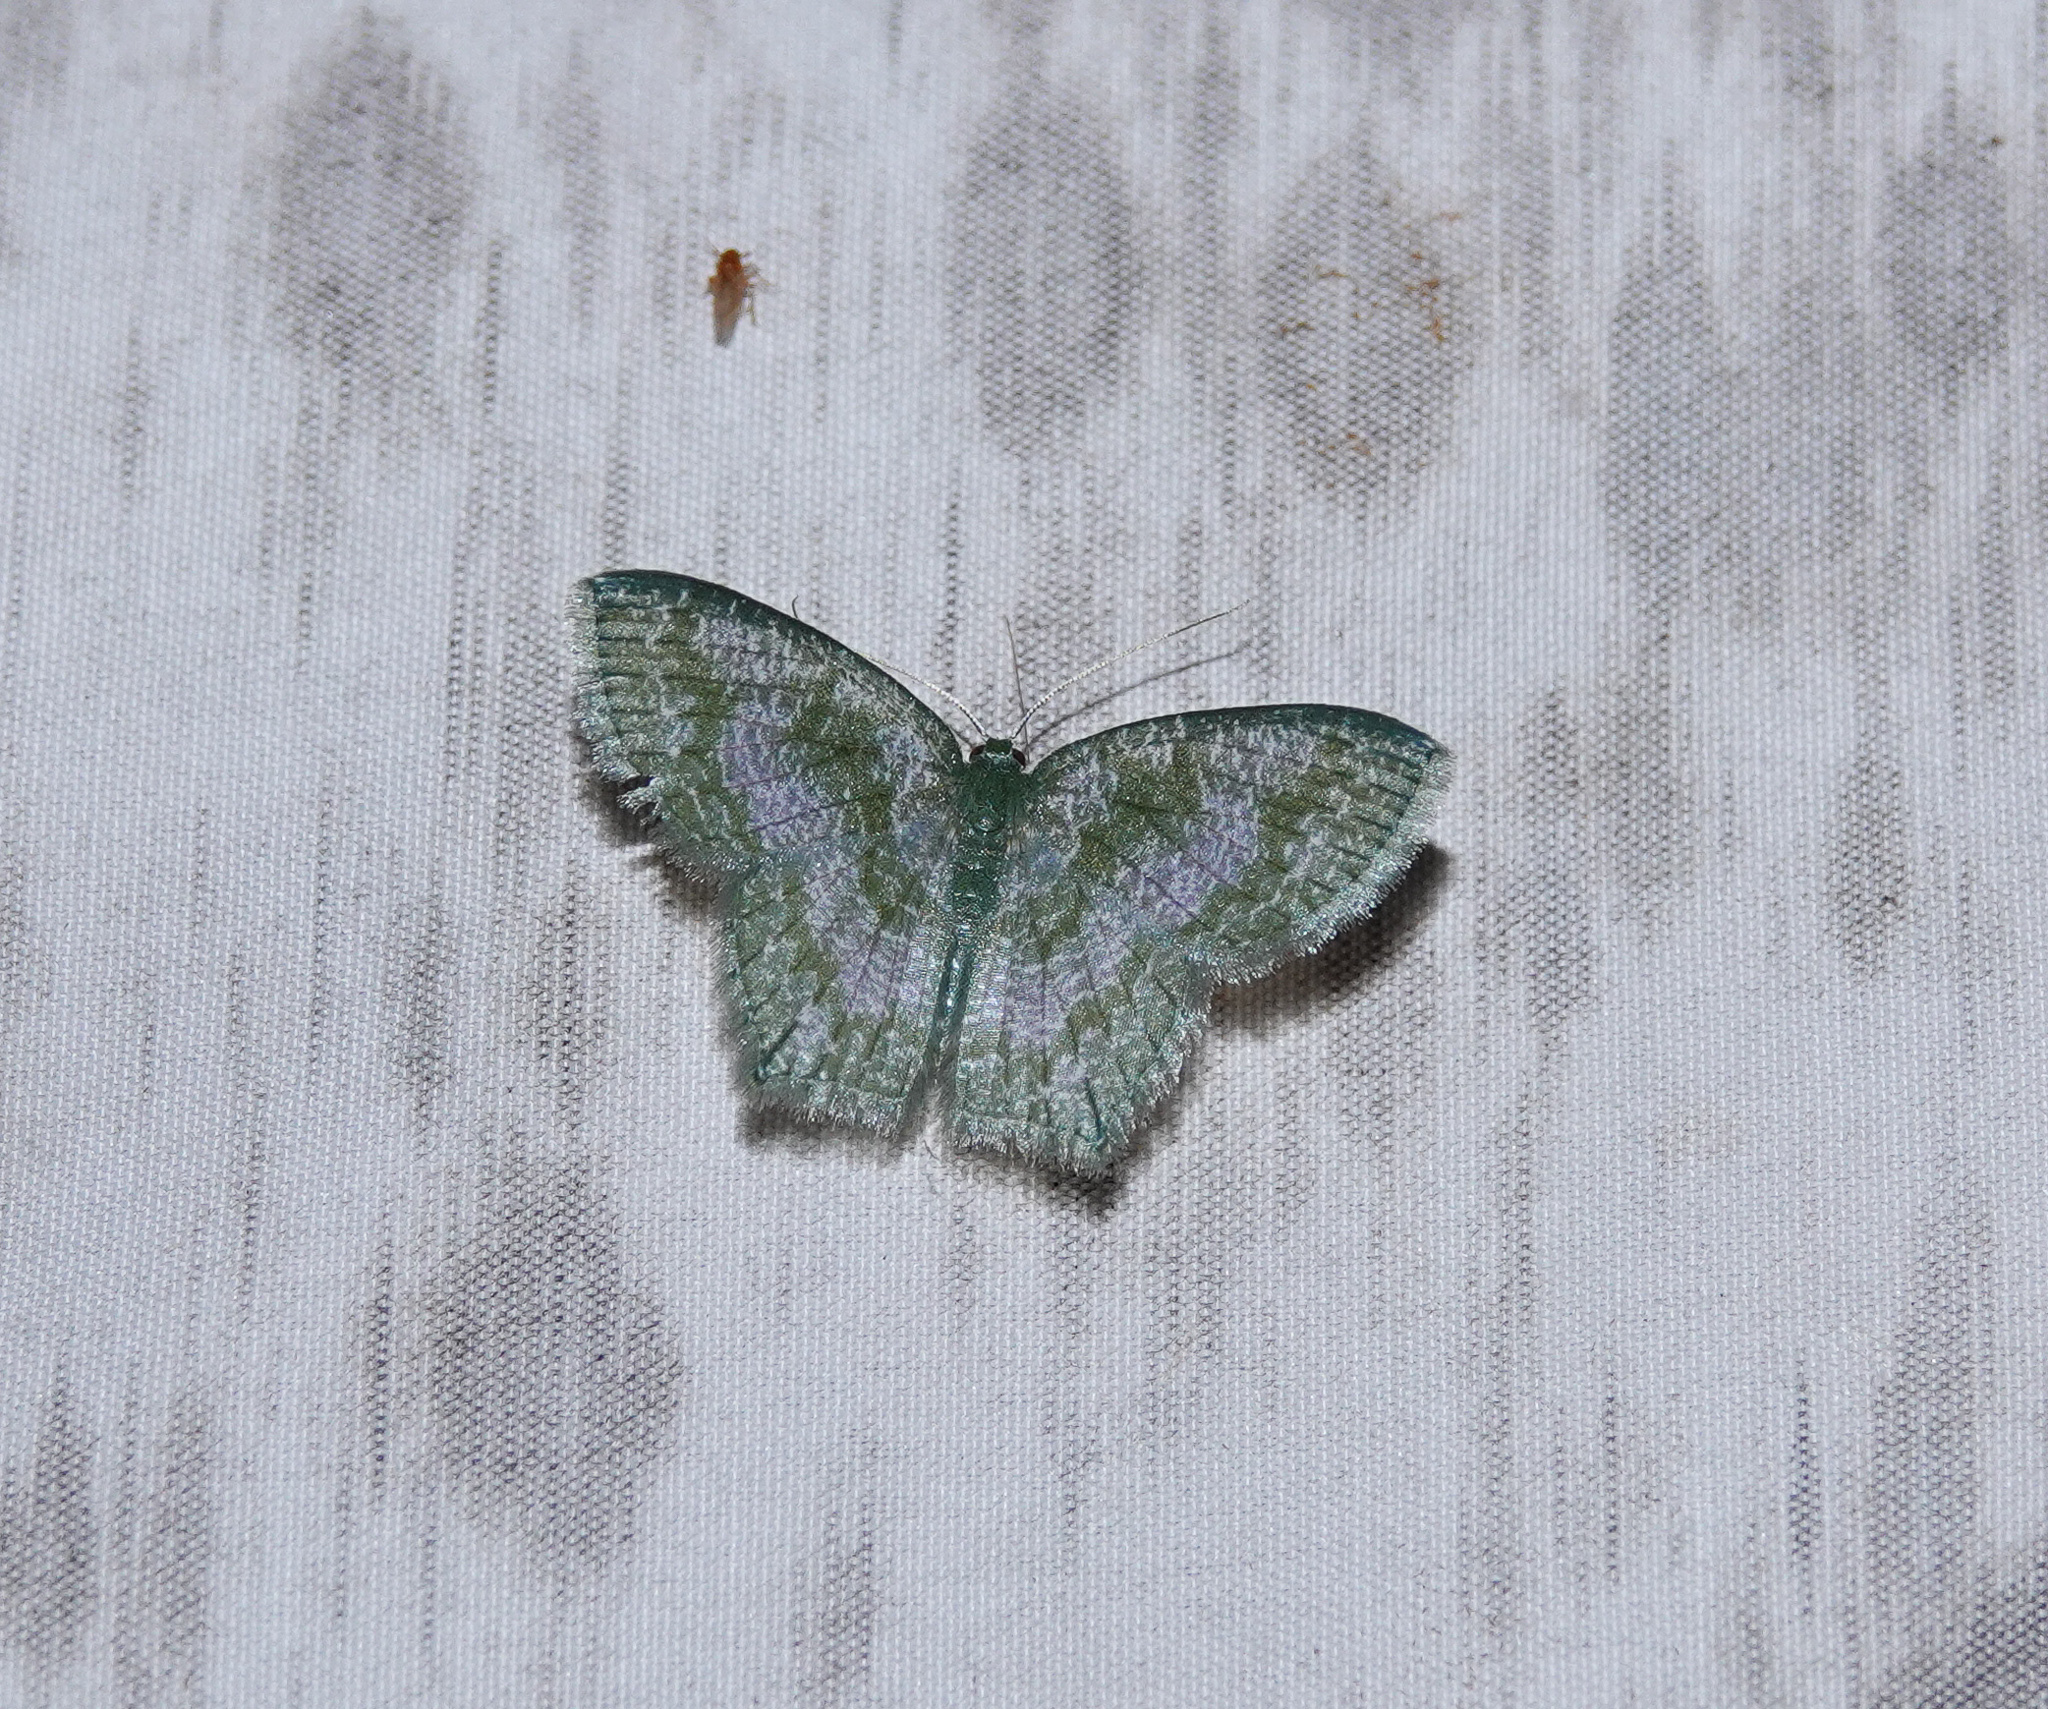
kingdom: Animalia
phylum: Arthropoda
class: Insecta
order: Lepidoptera
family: Geometridae
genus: Jodis
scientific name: Jodis subtractata
